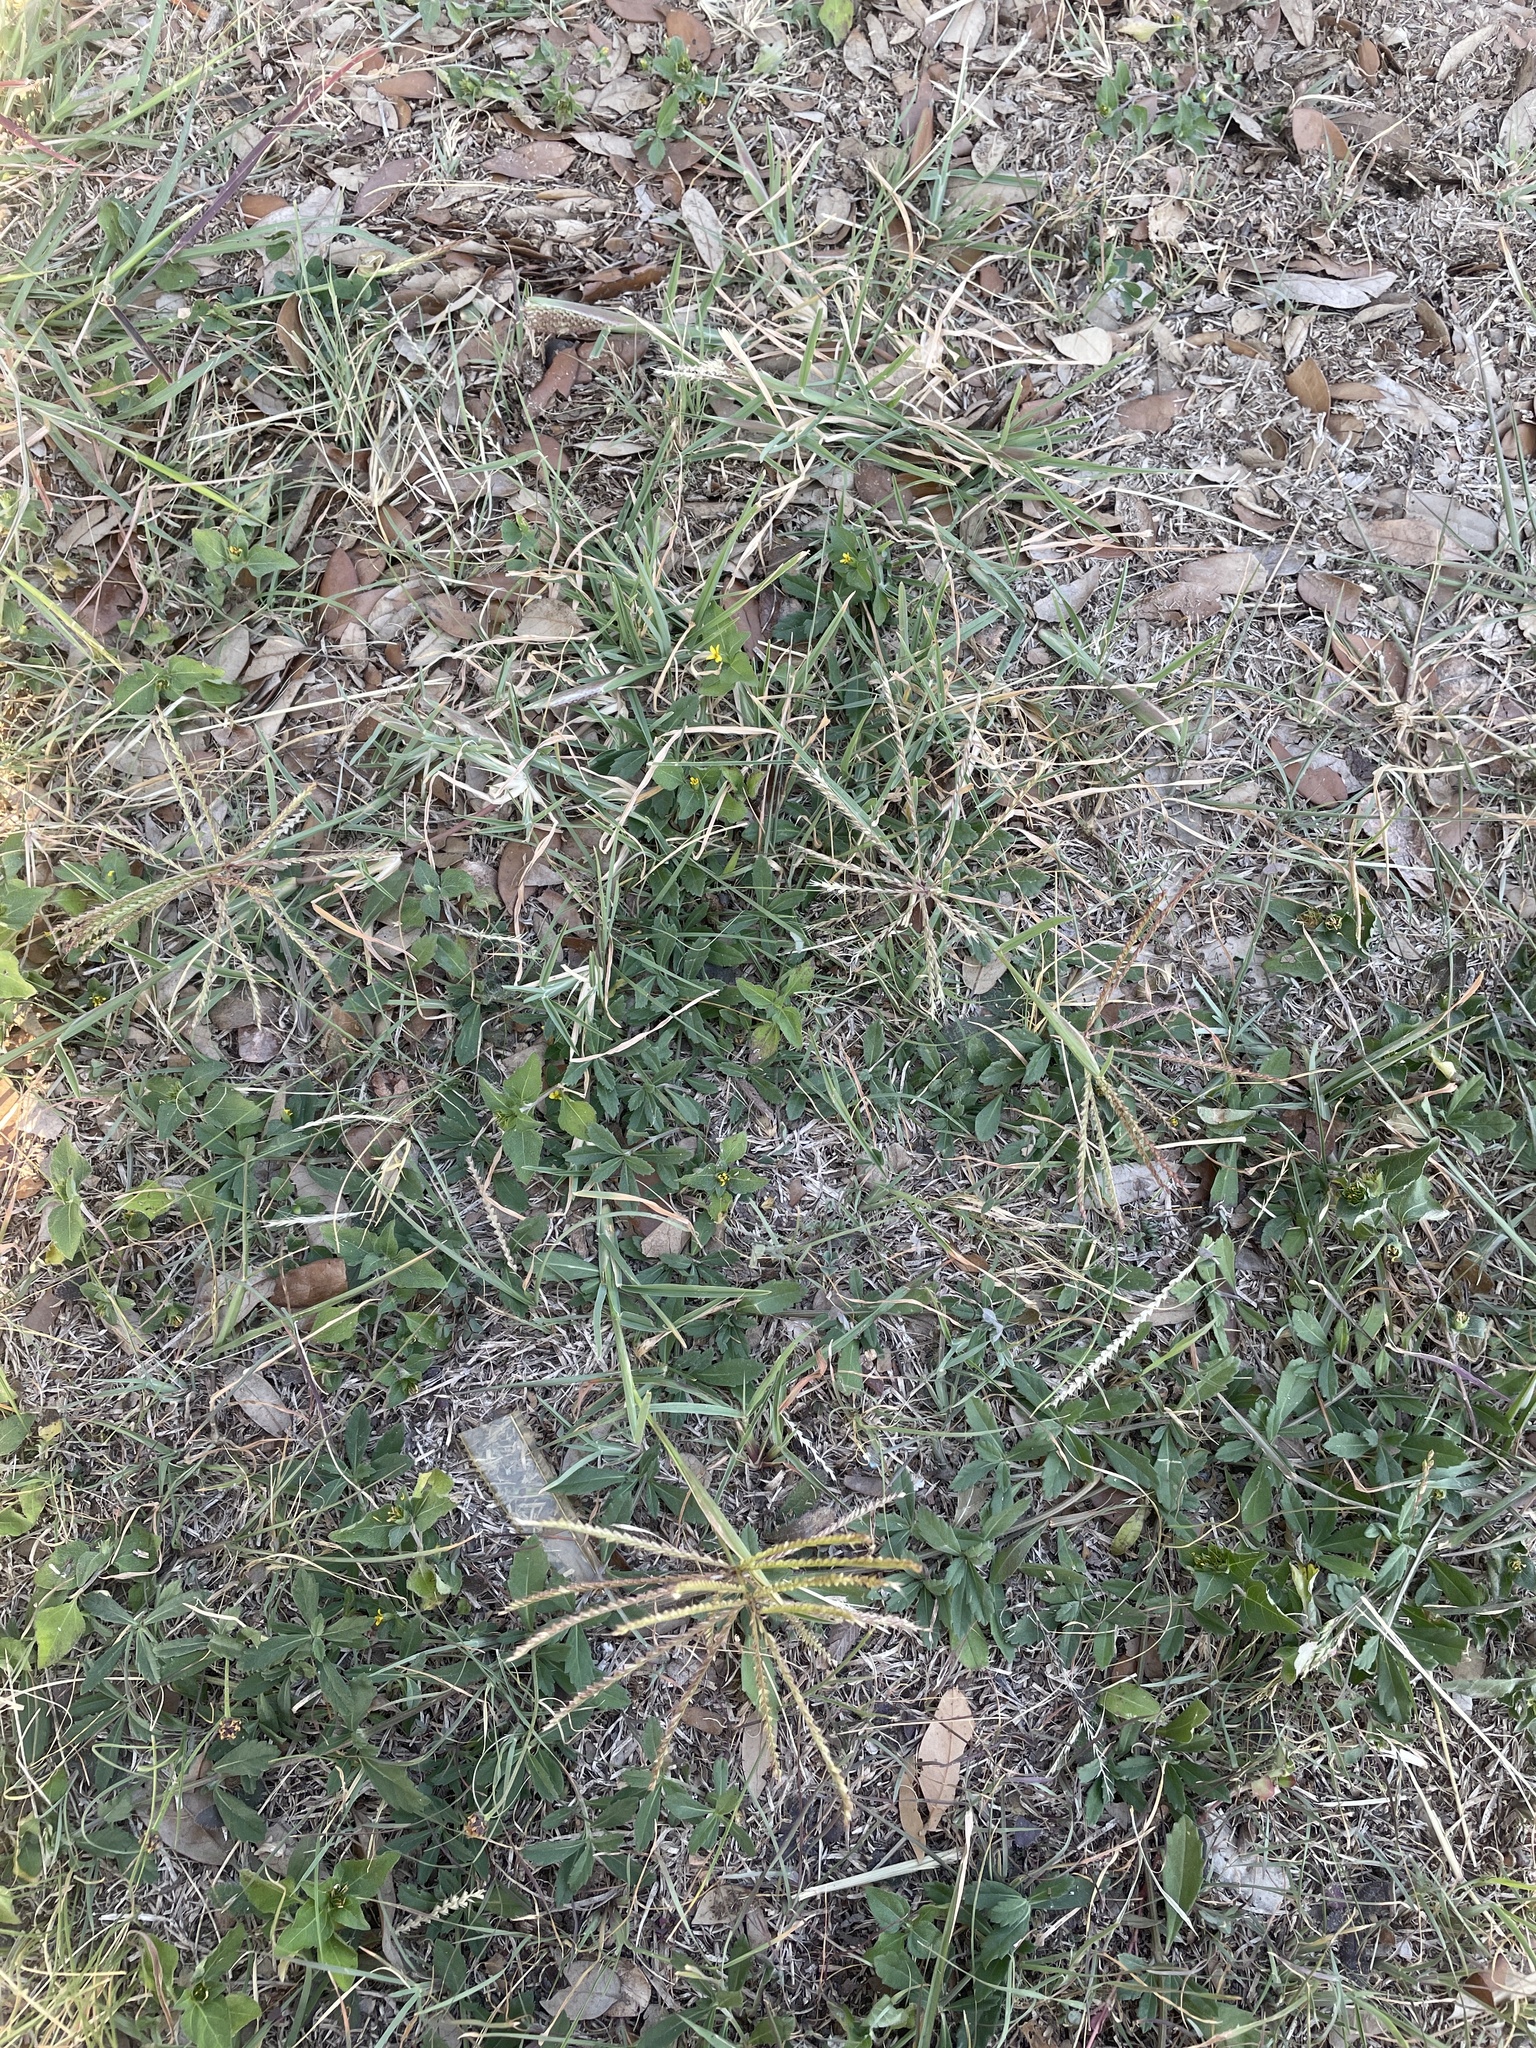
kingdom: Plantae
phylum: Tracheophyta
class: Liliopsida
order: Poales
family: Poaceae
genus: Chloris
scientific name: Chloris verticillata
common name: Tumble windmill grass
